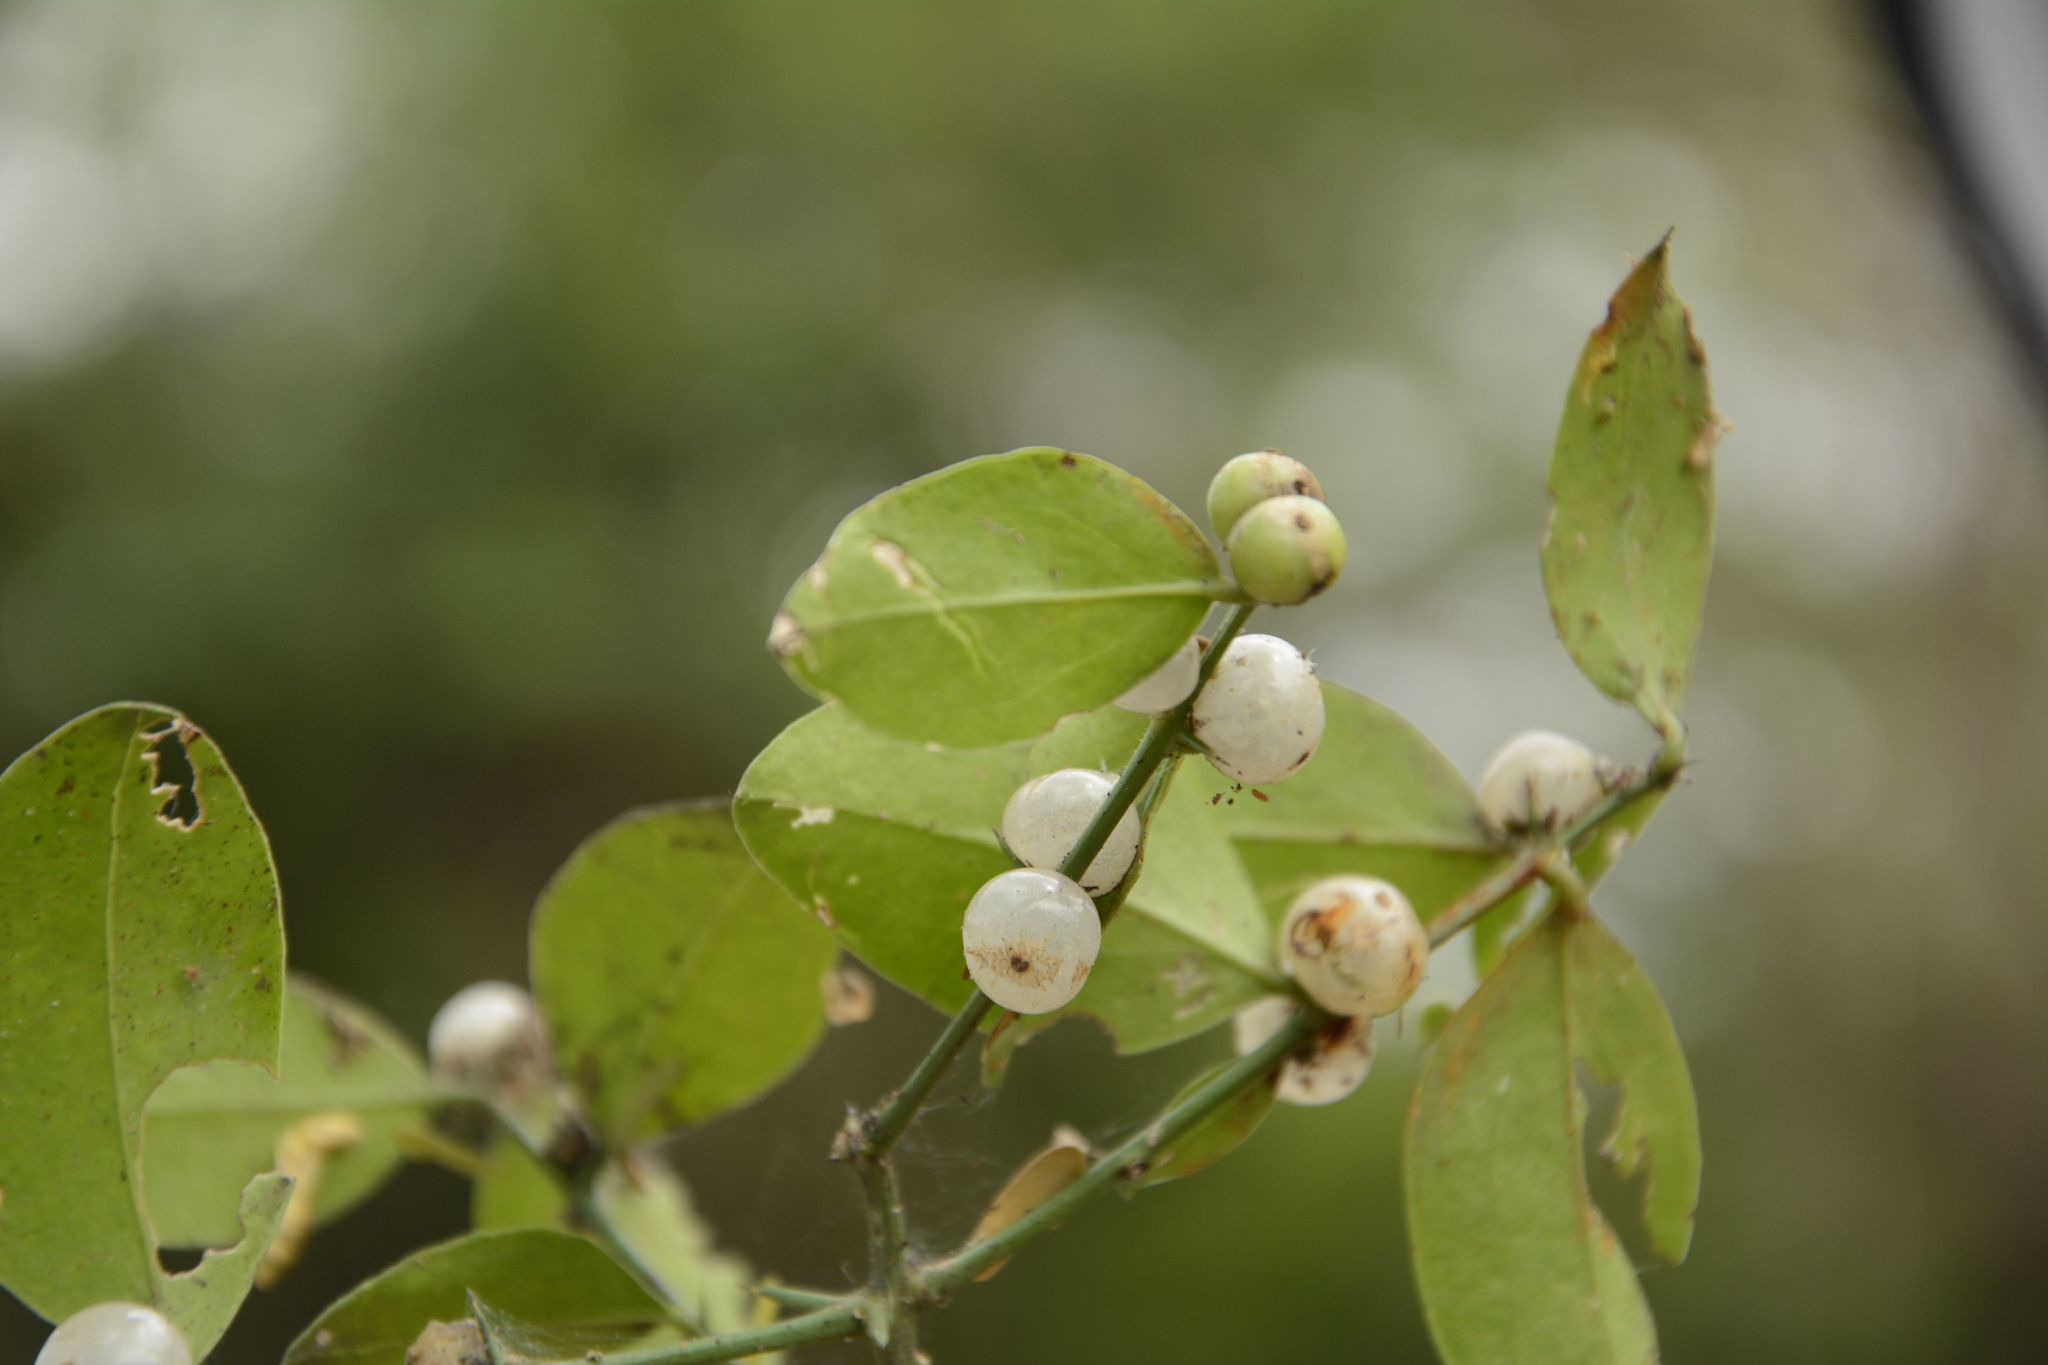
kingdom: Plantae
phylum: Tracheophyta
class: Magnoliopsida
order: Brassicales
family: Salvadoraceae
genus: Azima
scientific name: Azima tetracantha
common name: Needle bush
